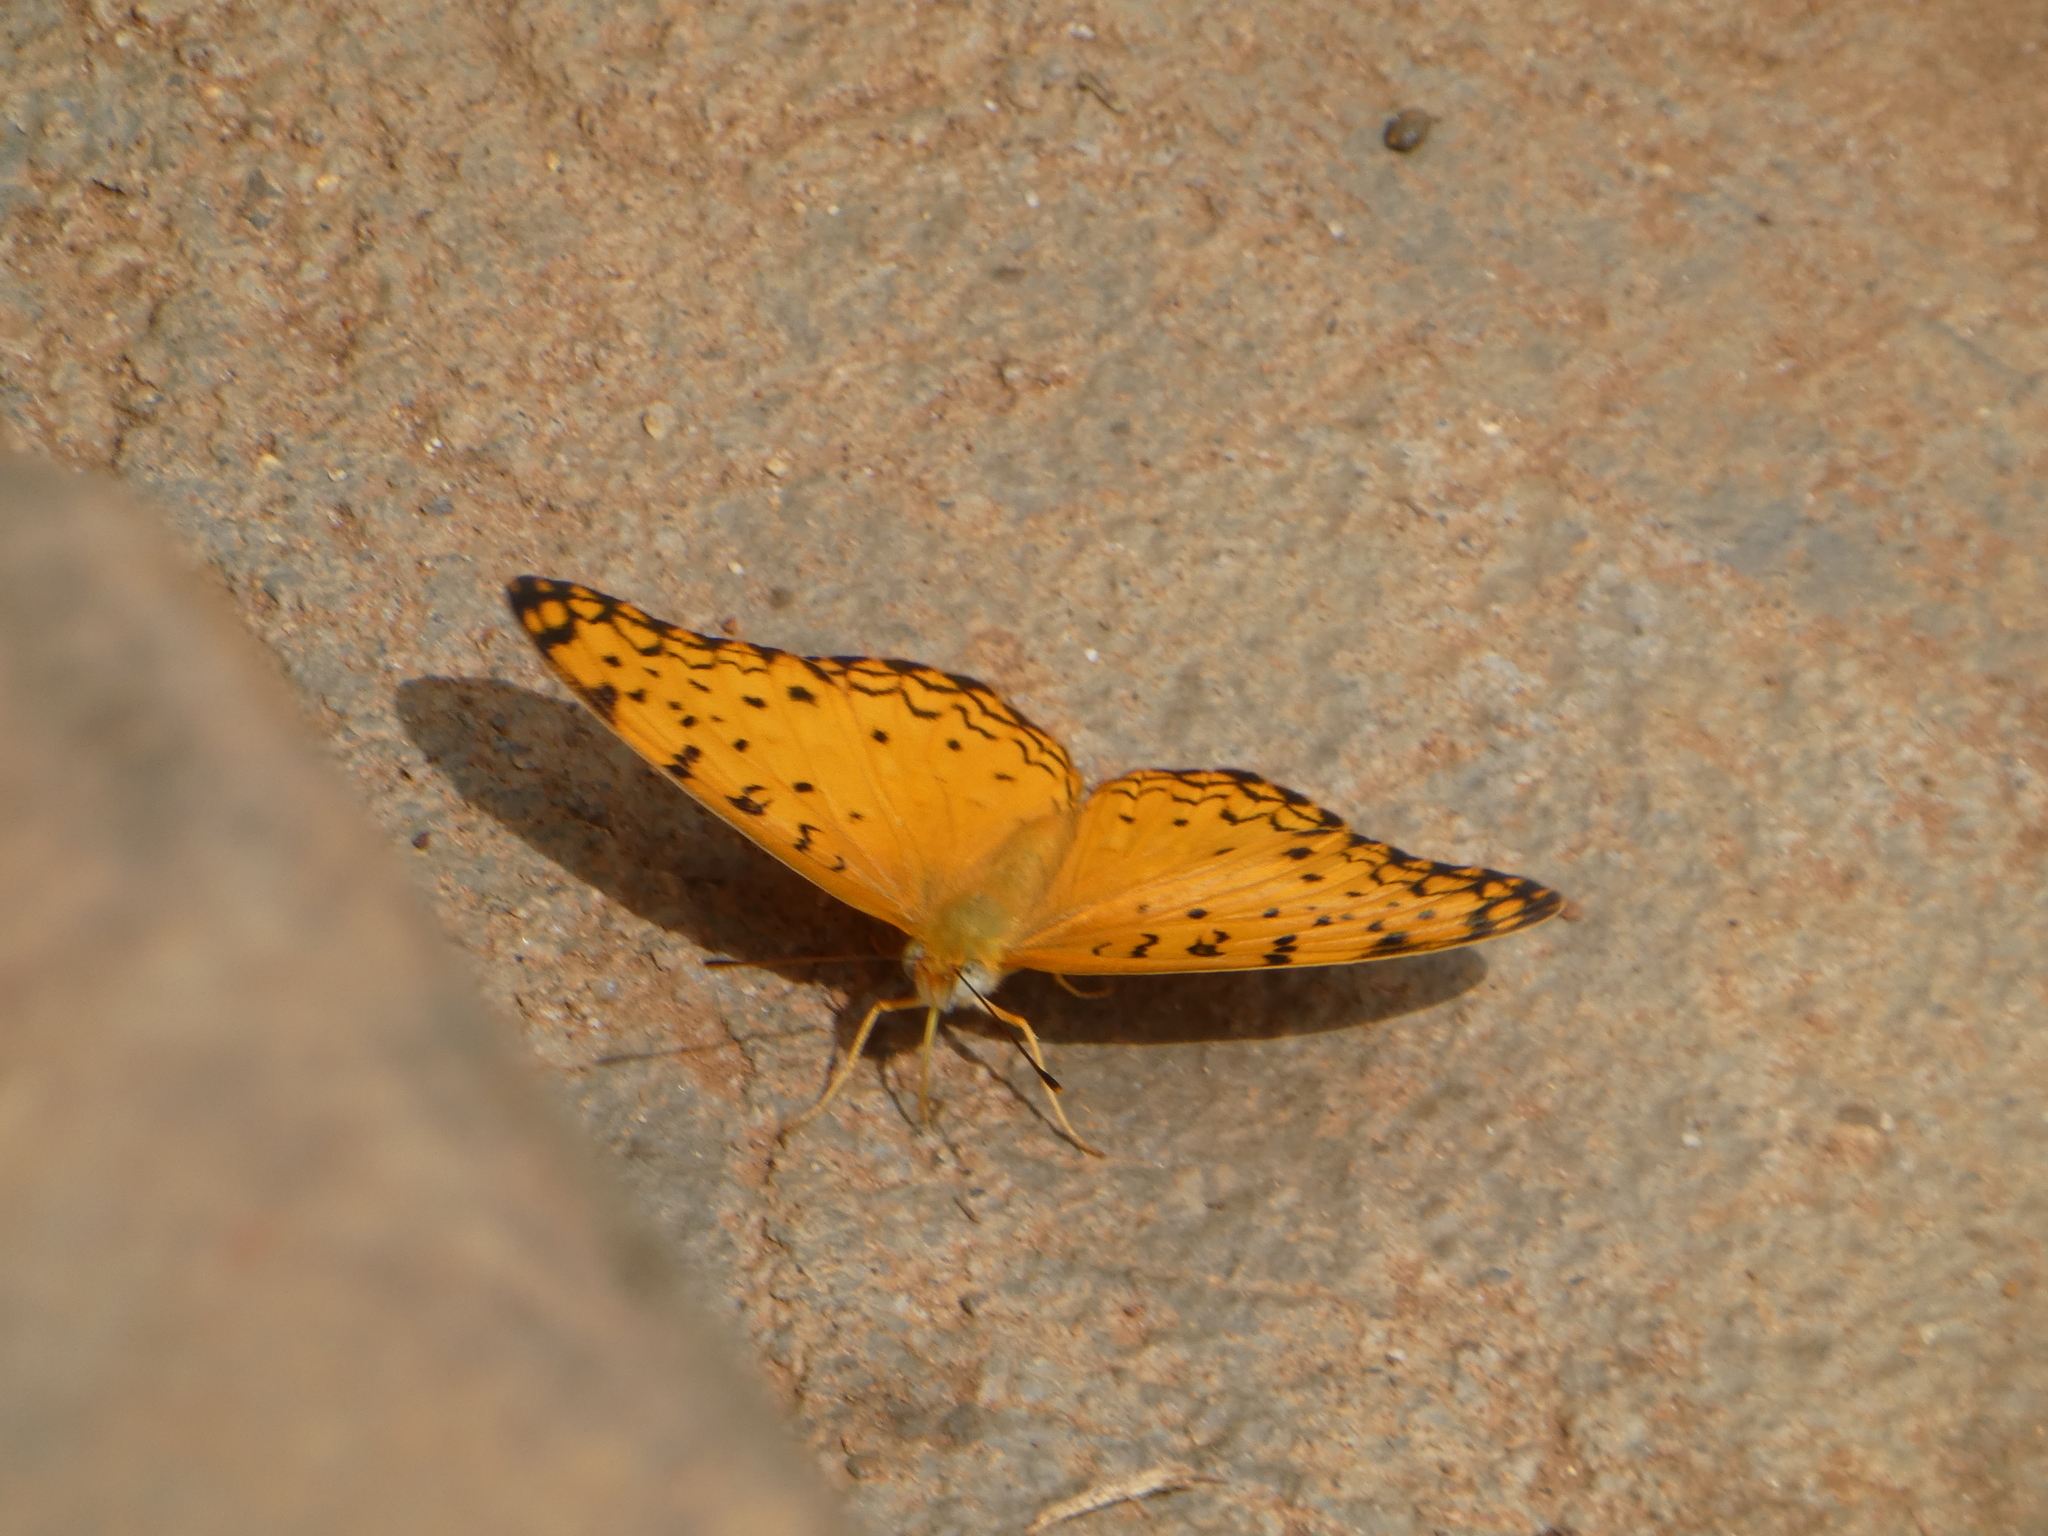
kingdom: Animalia
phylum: Arthropoda
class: Insecta
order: Lepidoptera
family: Nymphalidae
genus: Phalanta
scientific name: Phalanta phalantha
